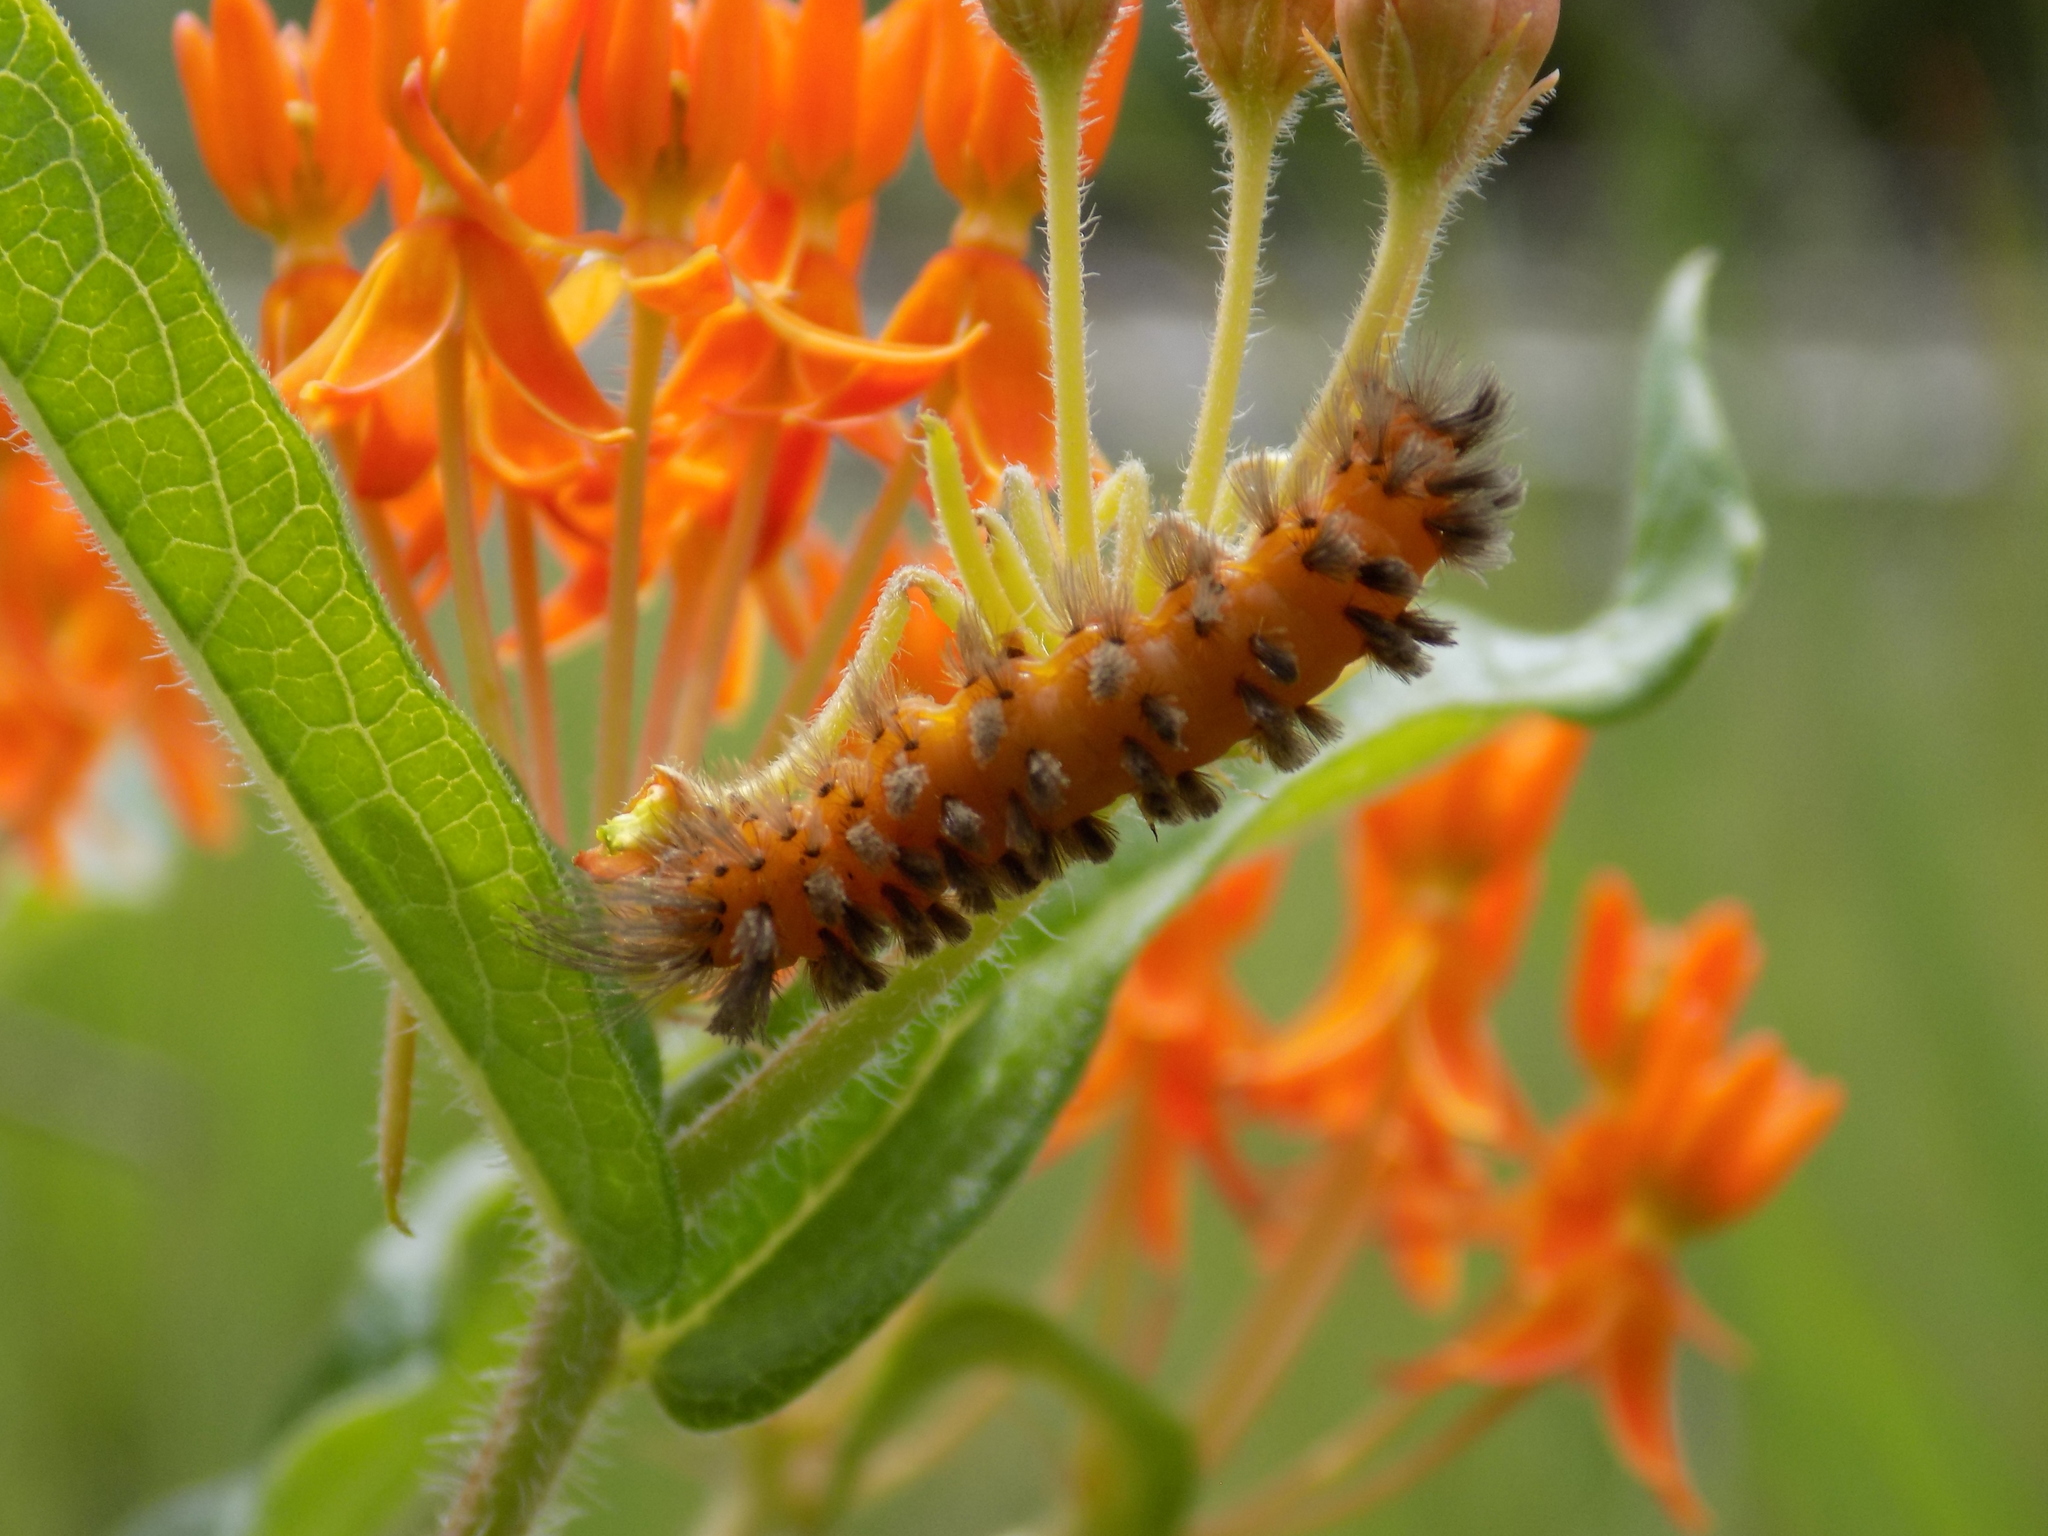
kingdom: Animalia
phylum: Arthropoda
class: Insecta
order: Lepidoptera
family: Erebidae
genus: Cycnia
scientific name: Cycnia collaris
